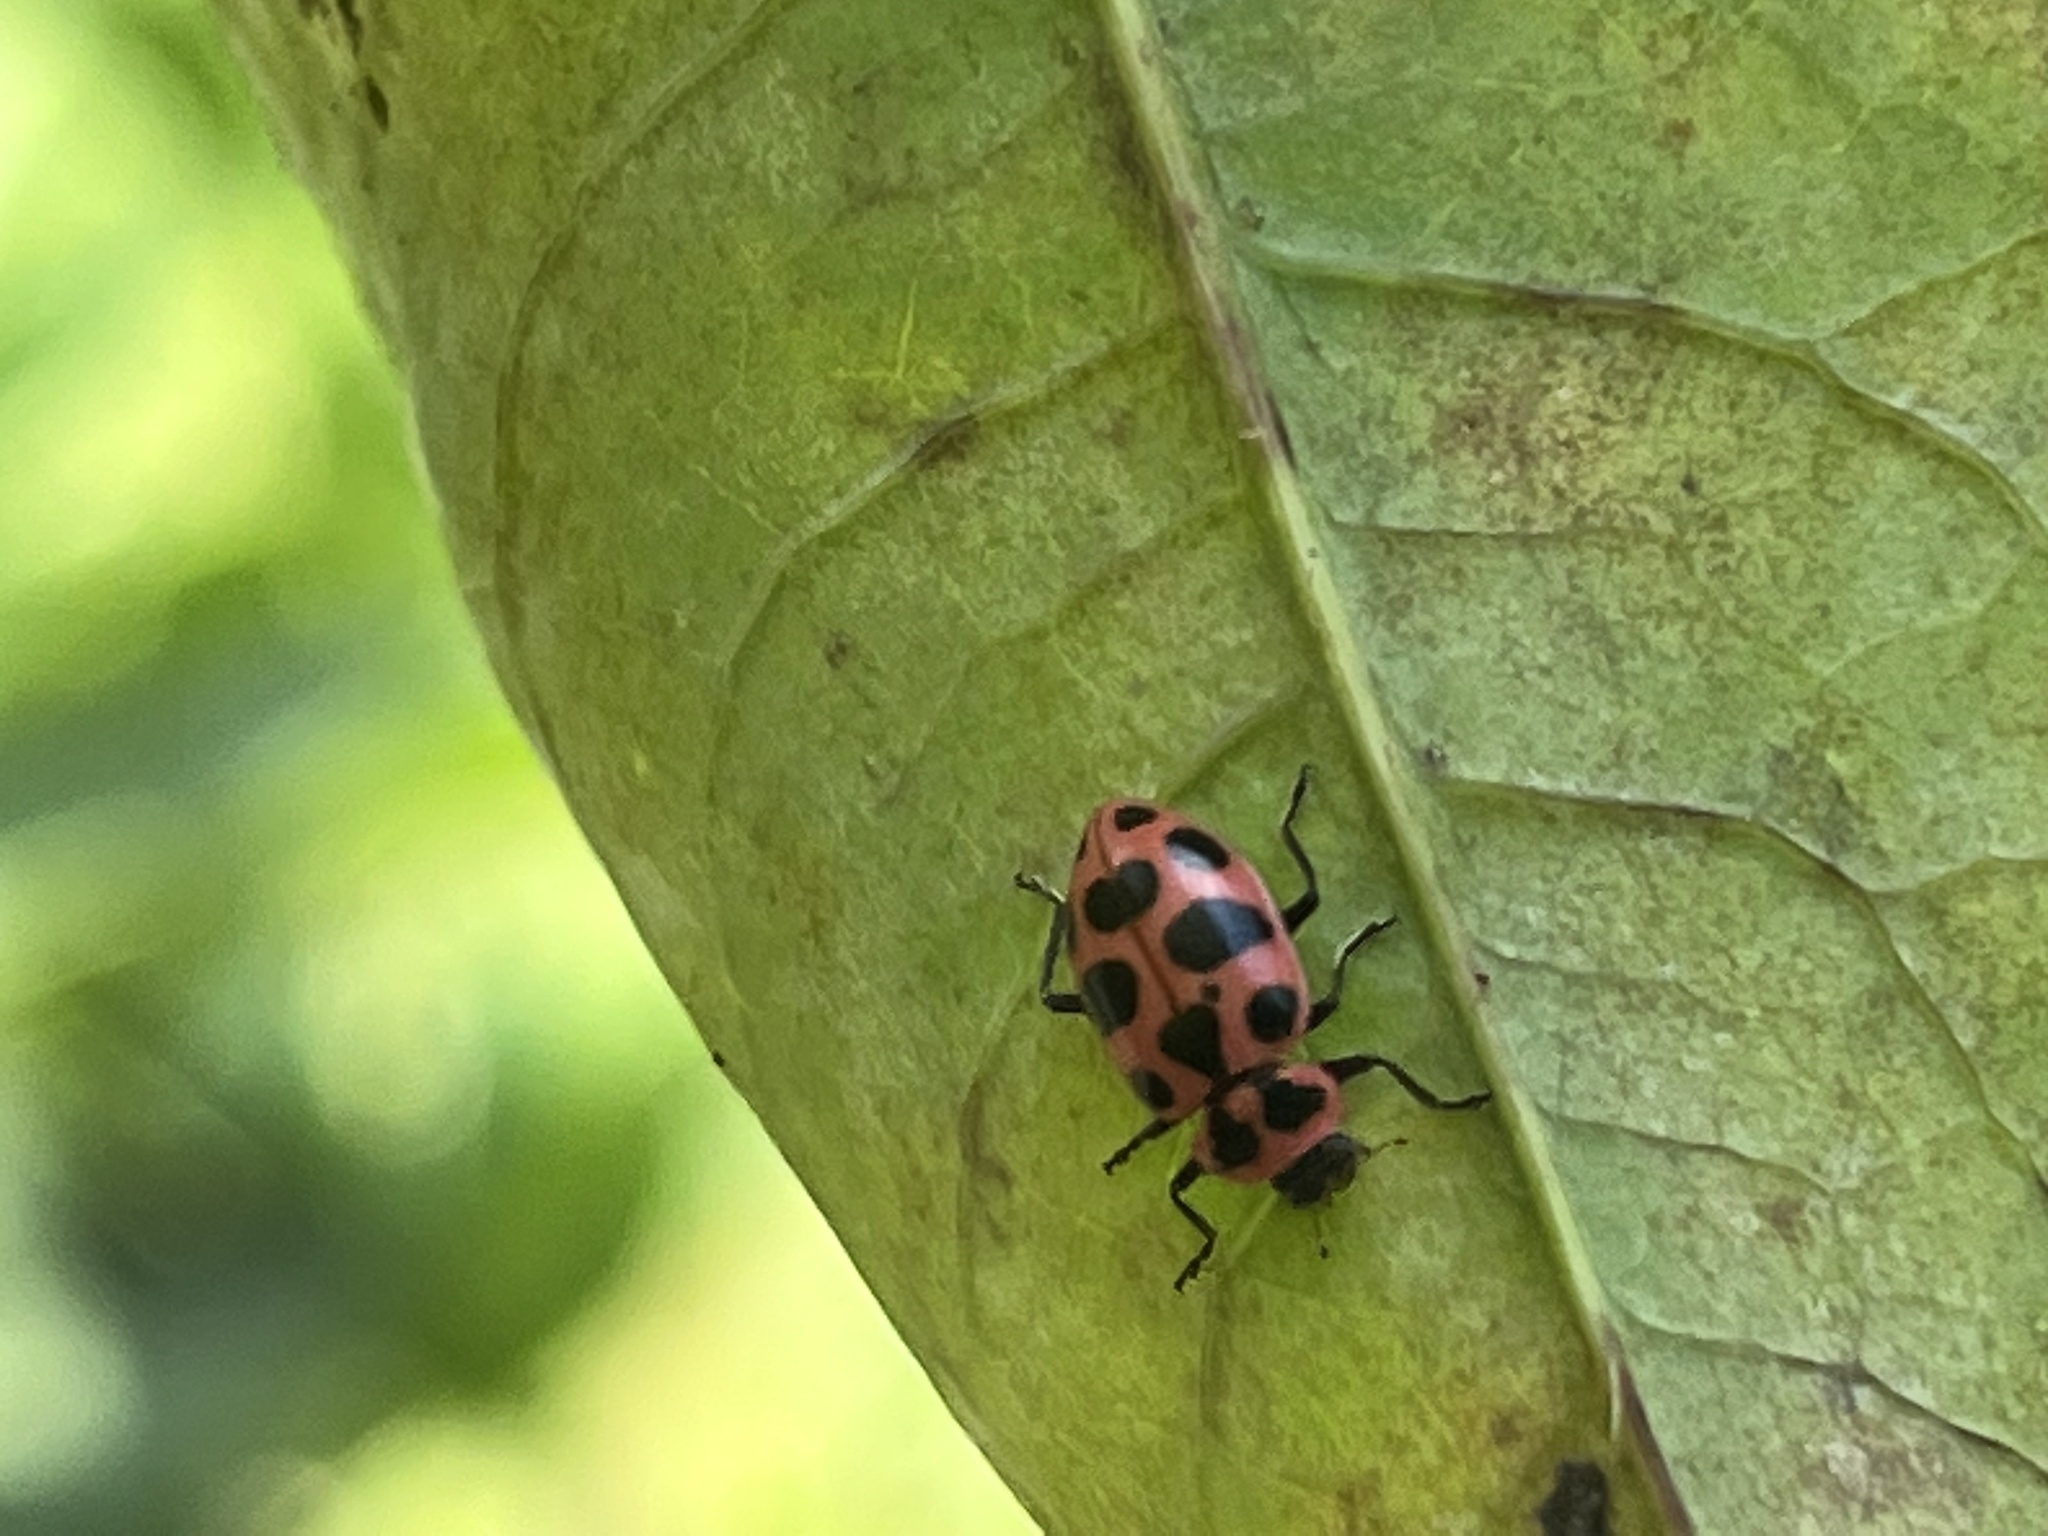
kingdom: Animalia
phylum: Arthropoda
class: Insecta
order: Coleoptera
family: Coccinellidae
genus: Coleomegilla
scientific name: Coleomegilla maculata
